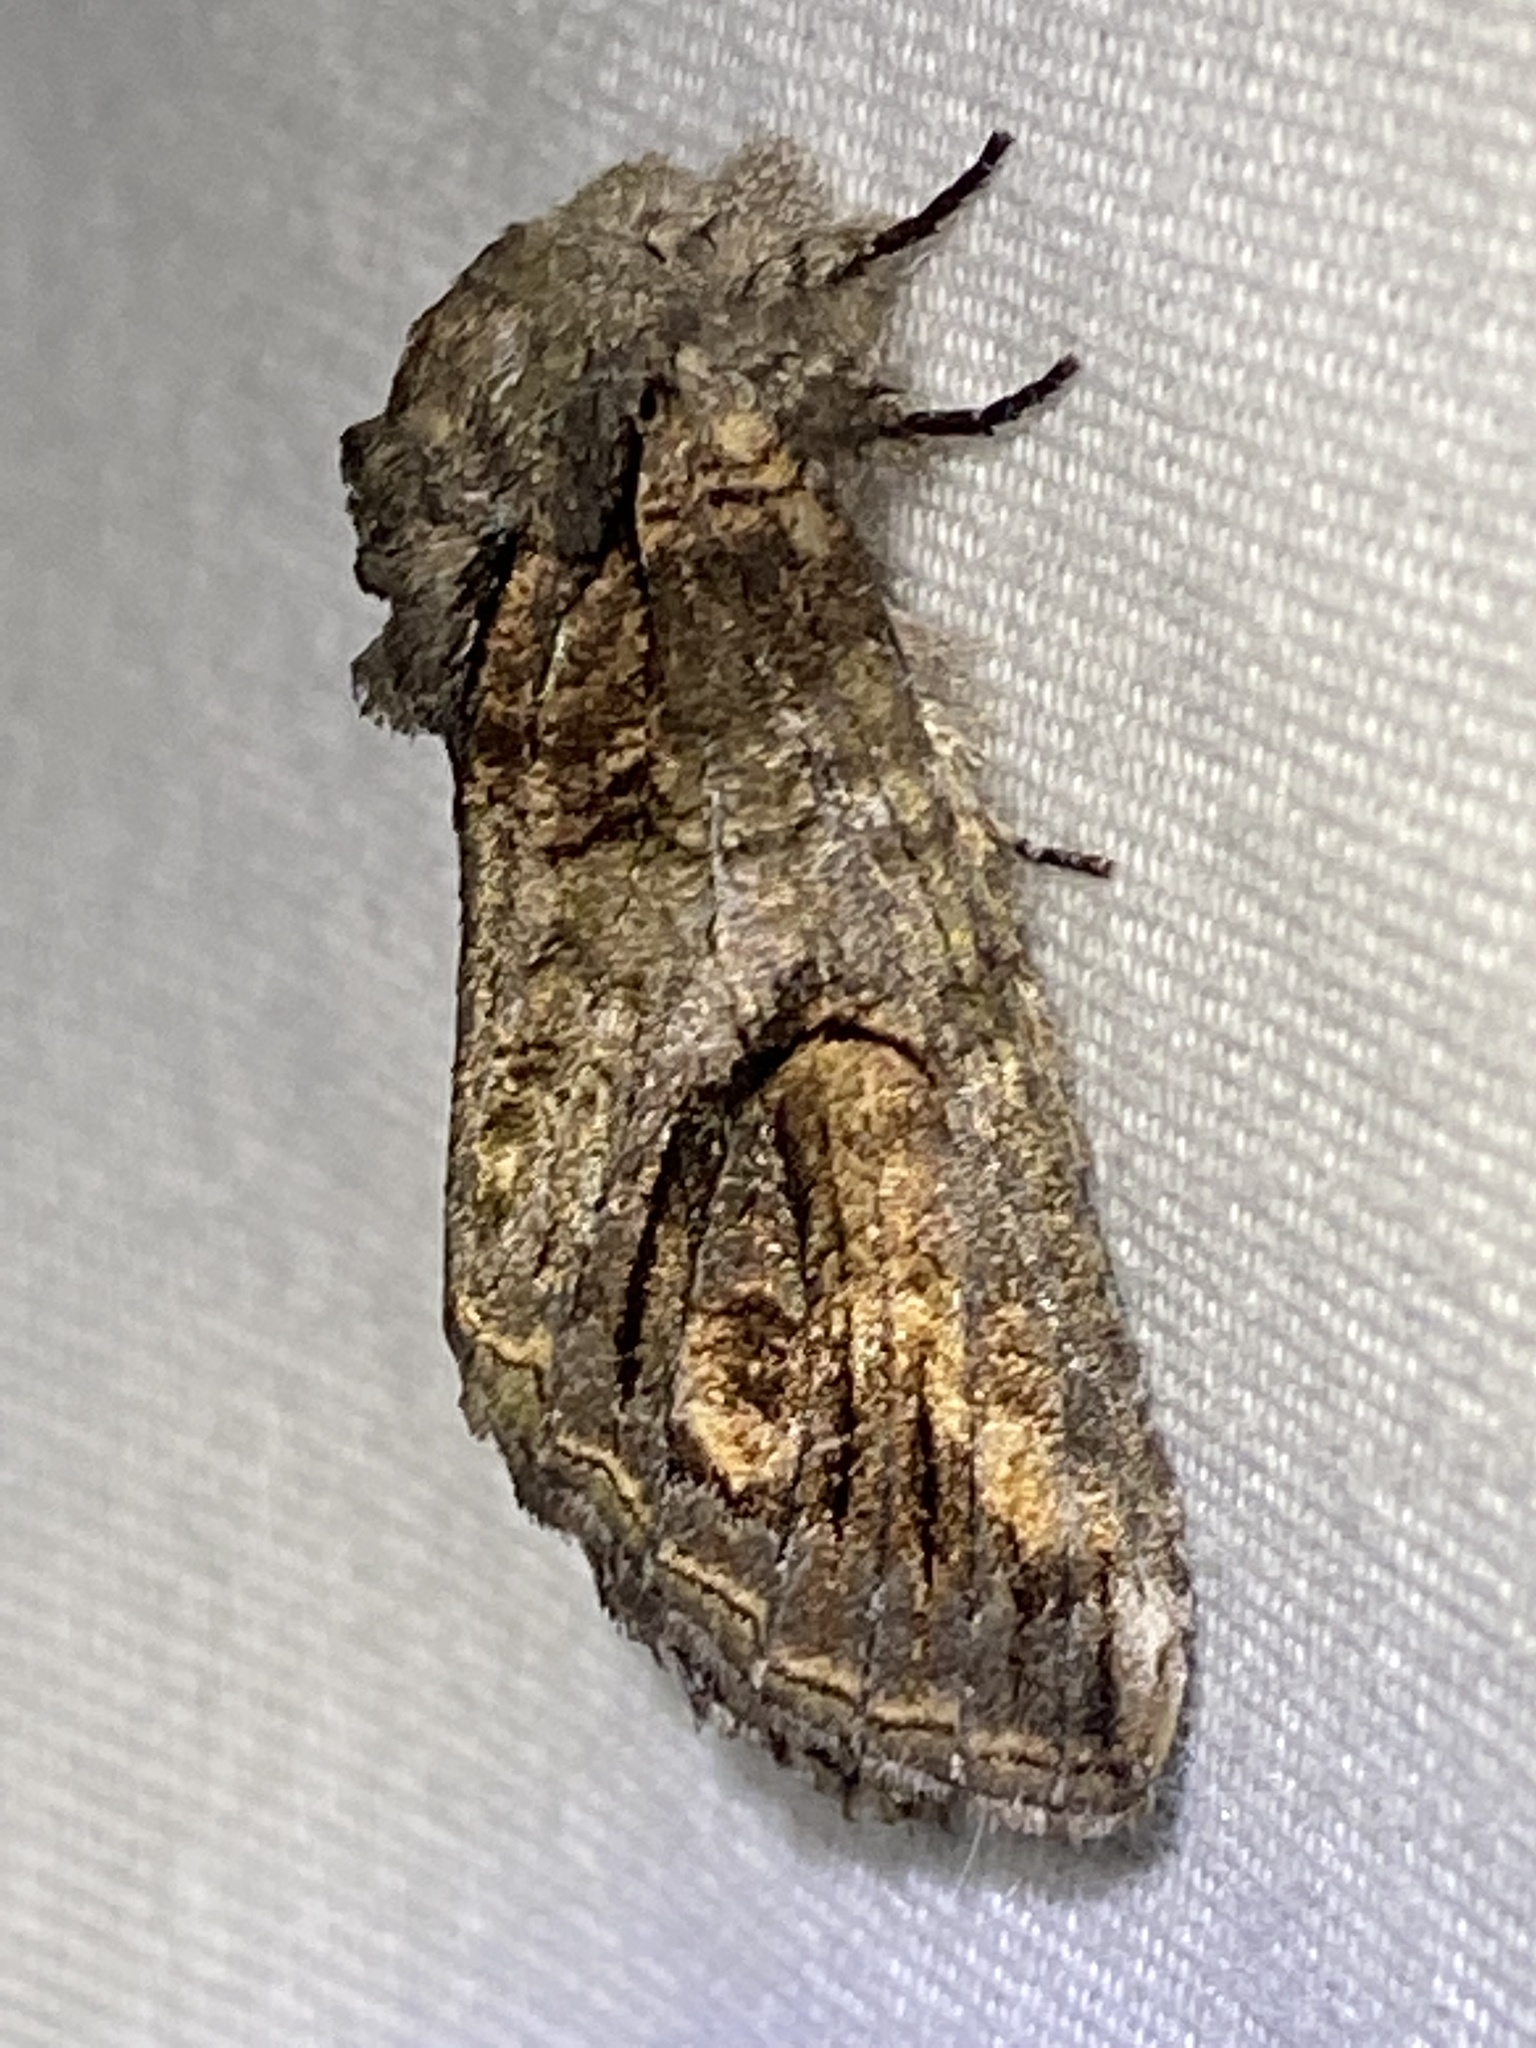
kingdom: Animalia
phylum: Arthropoda
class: Insecta
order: Lepidoptera
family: Notodontidae
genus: Heterocampa
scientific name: Heterocampa obliqua
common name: Oblique heterocampa
